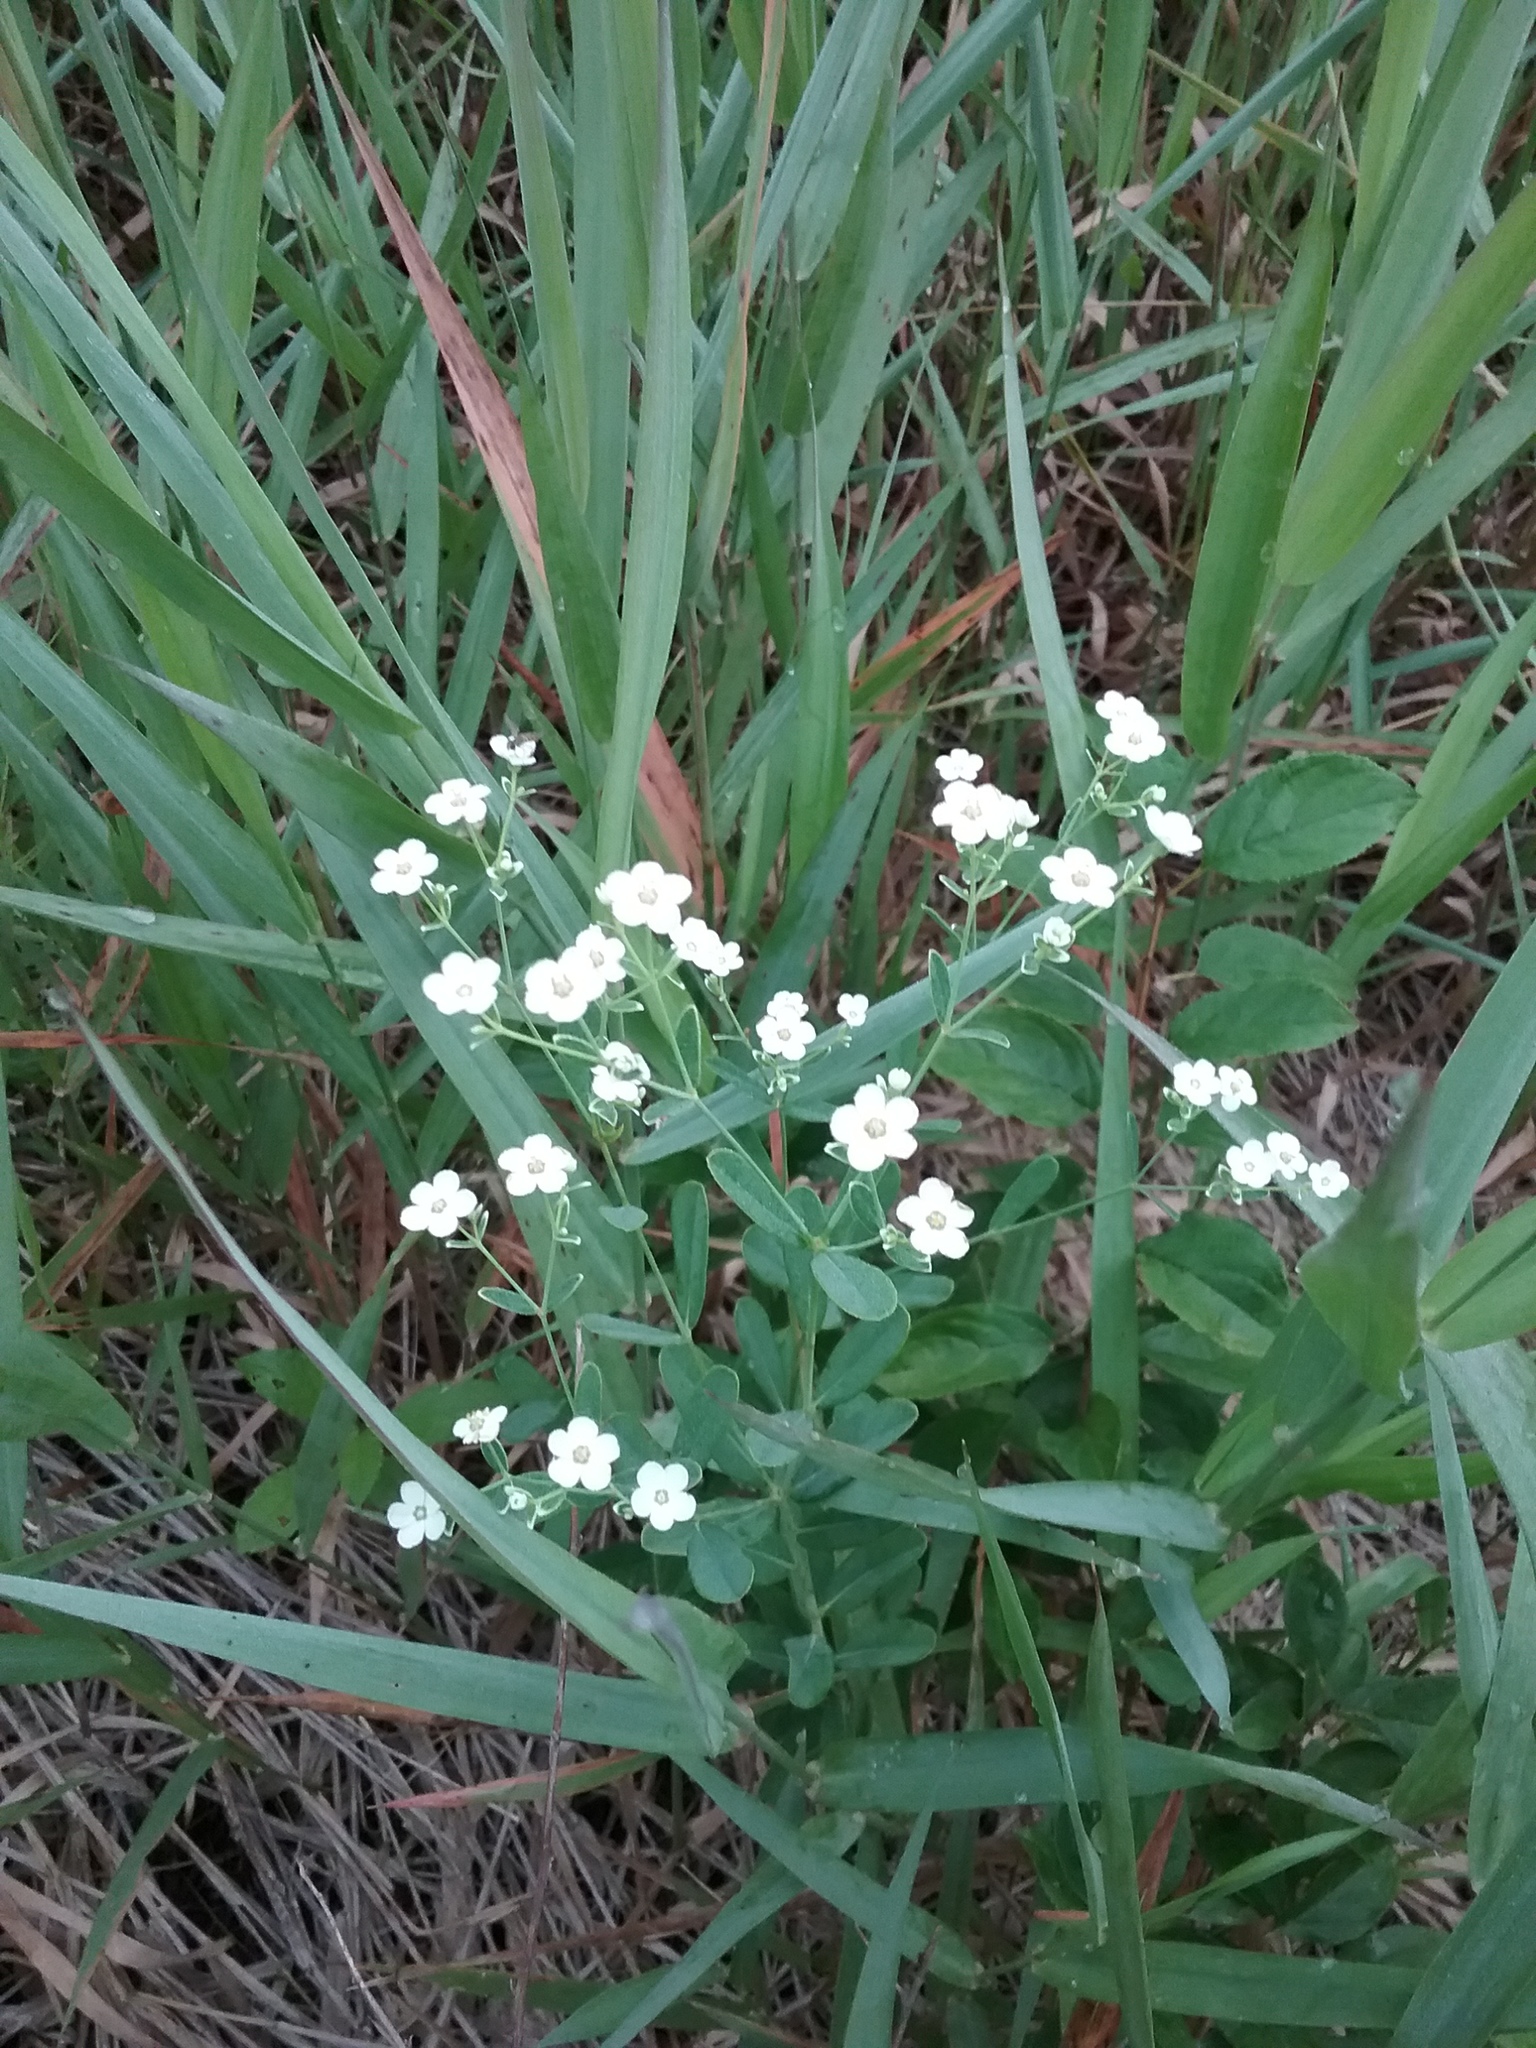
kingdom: Plantae
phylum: Tracheophyta
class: Magnoliopsida
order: Malpighiales
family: Euphorbiaceae
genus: Euphorbia
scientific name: Euphorbia corollata
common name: Flowering spurge
